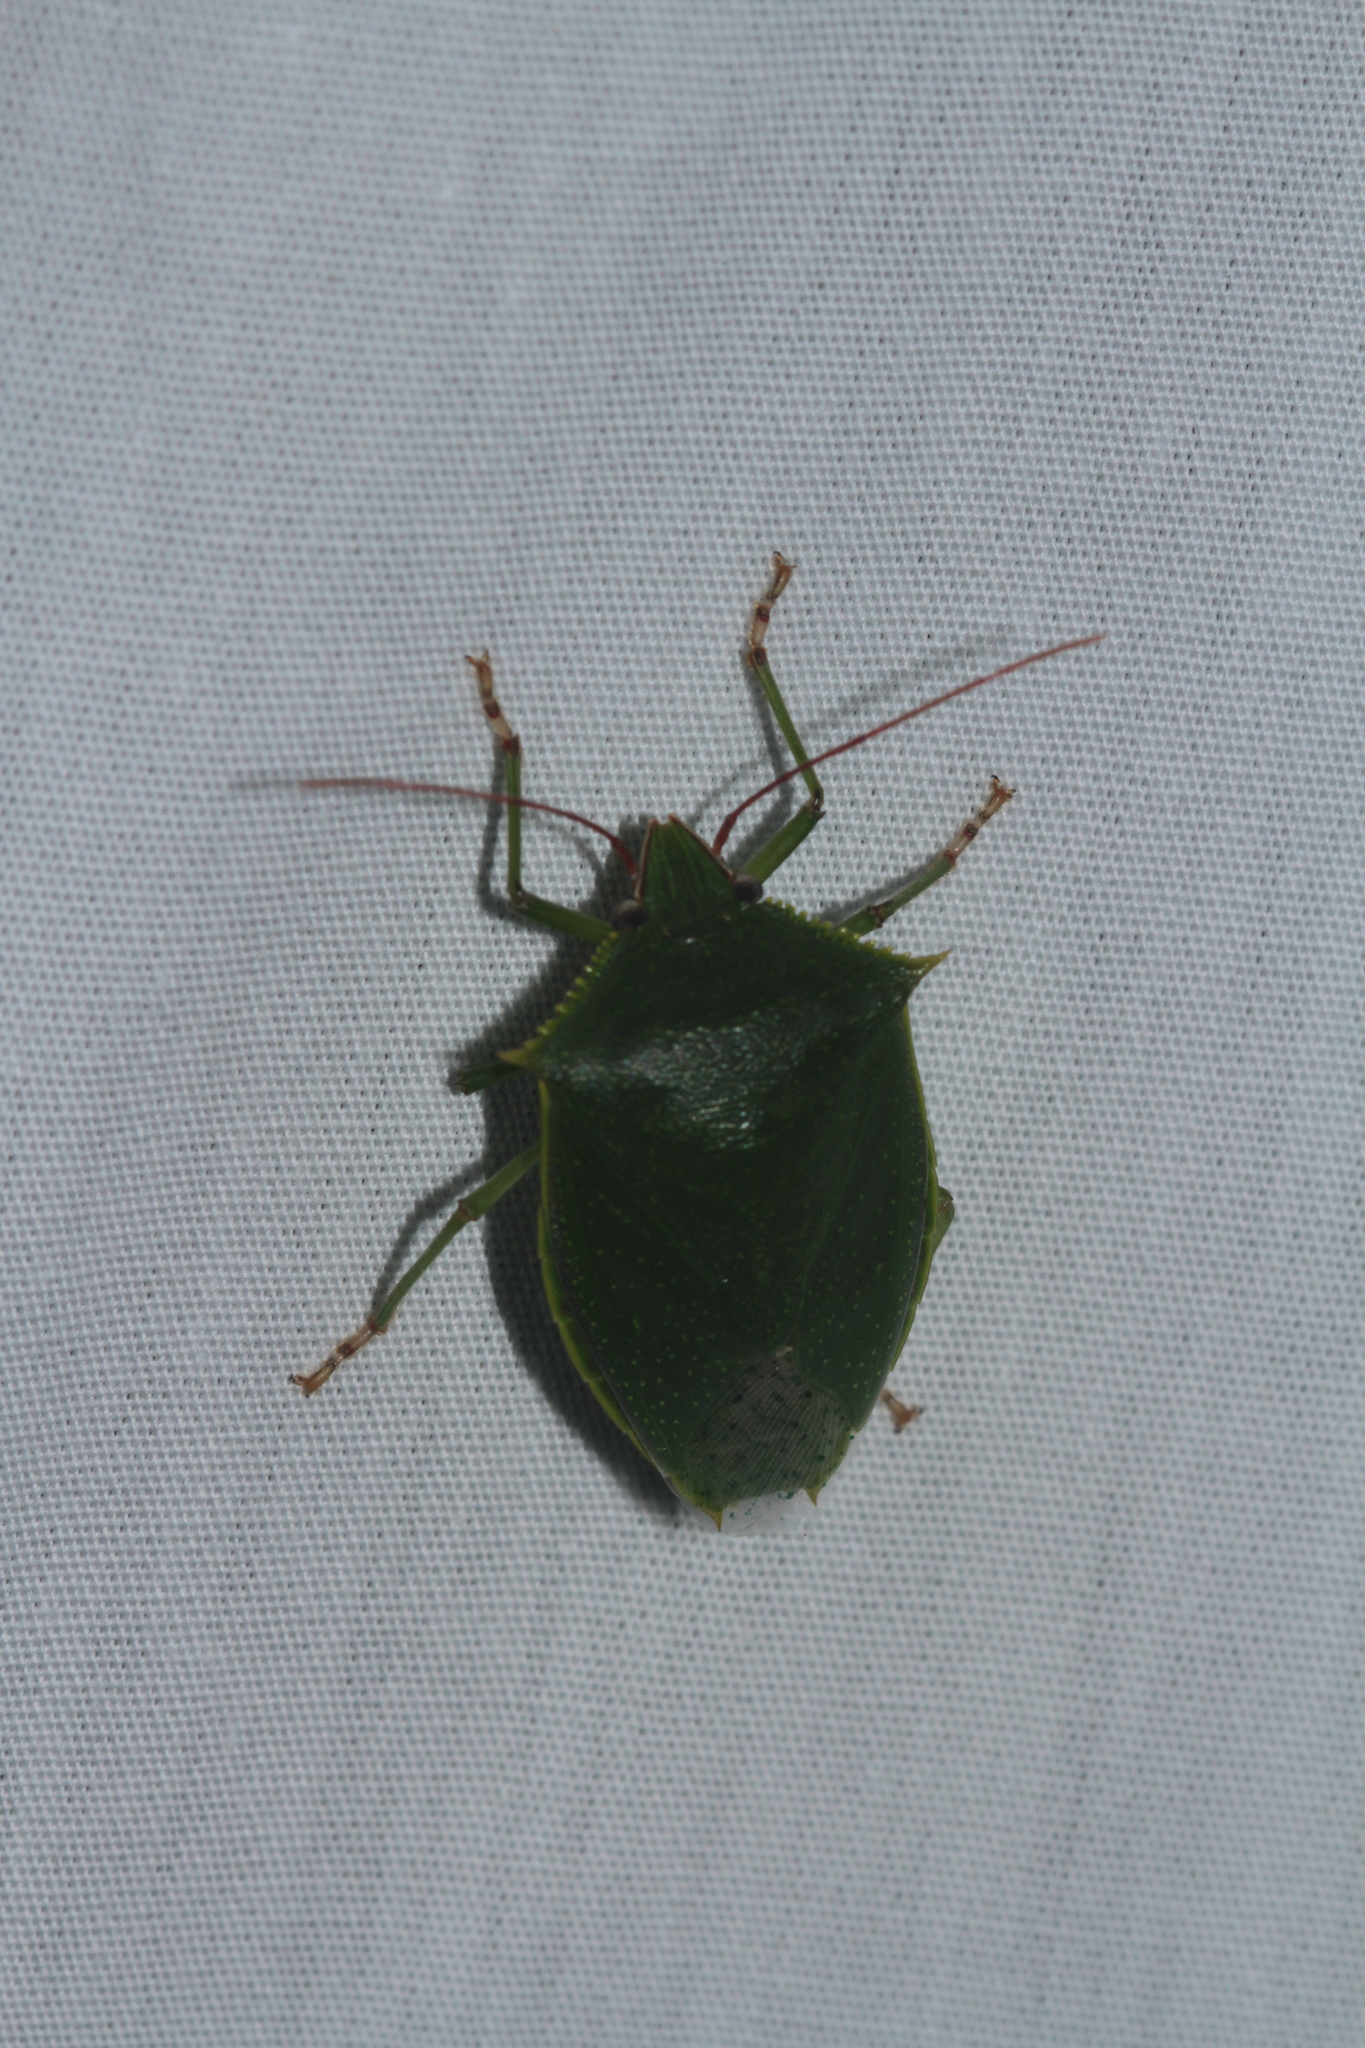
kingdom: Animalia
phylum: Arthropoda
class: Insecta
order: Hemiptera
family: Pentatomidae
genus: Loxa
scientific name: Loxa virescens
